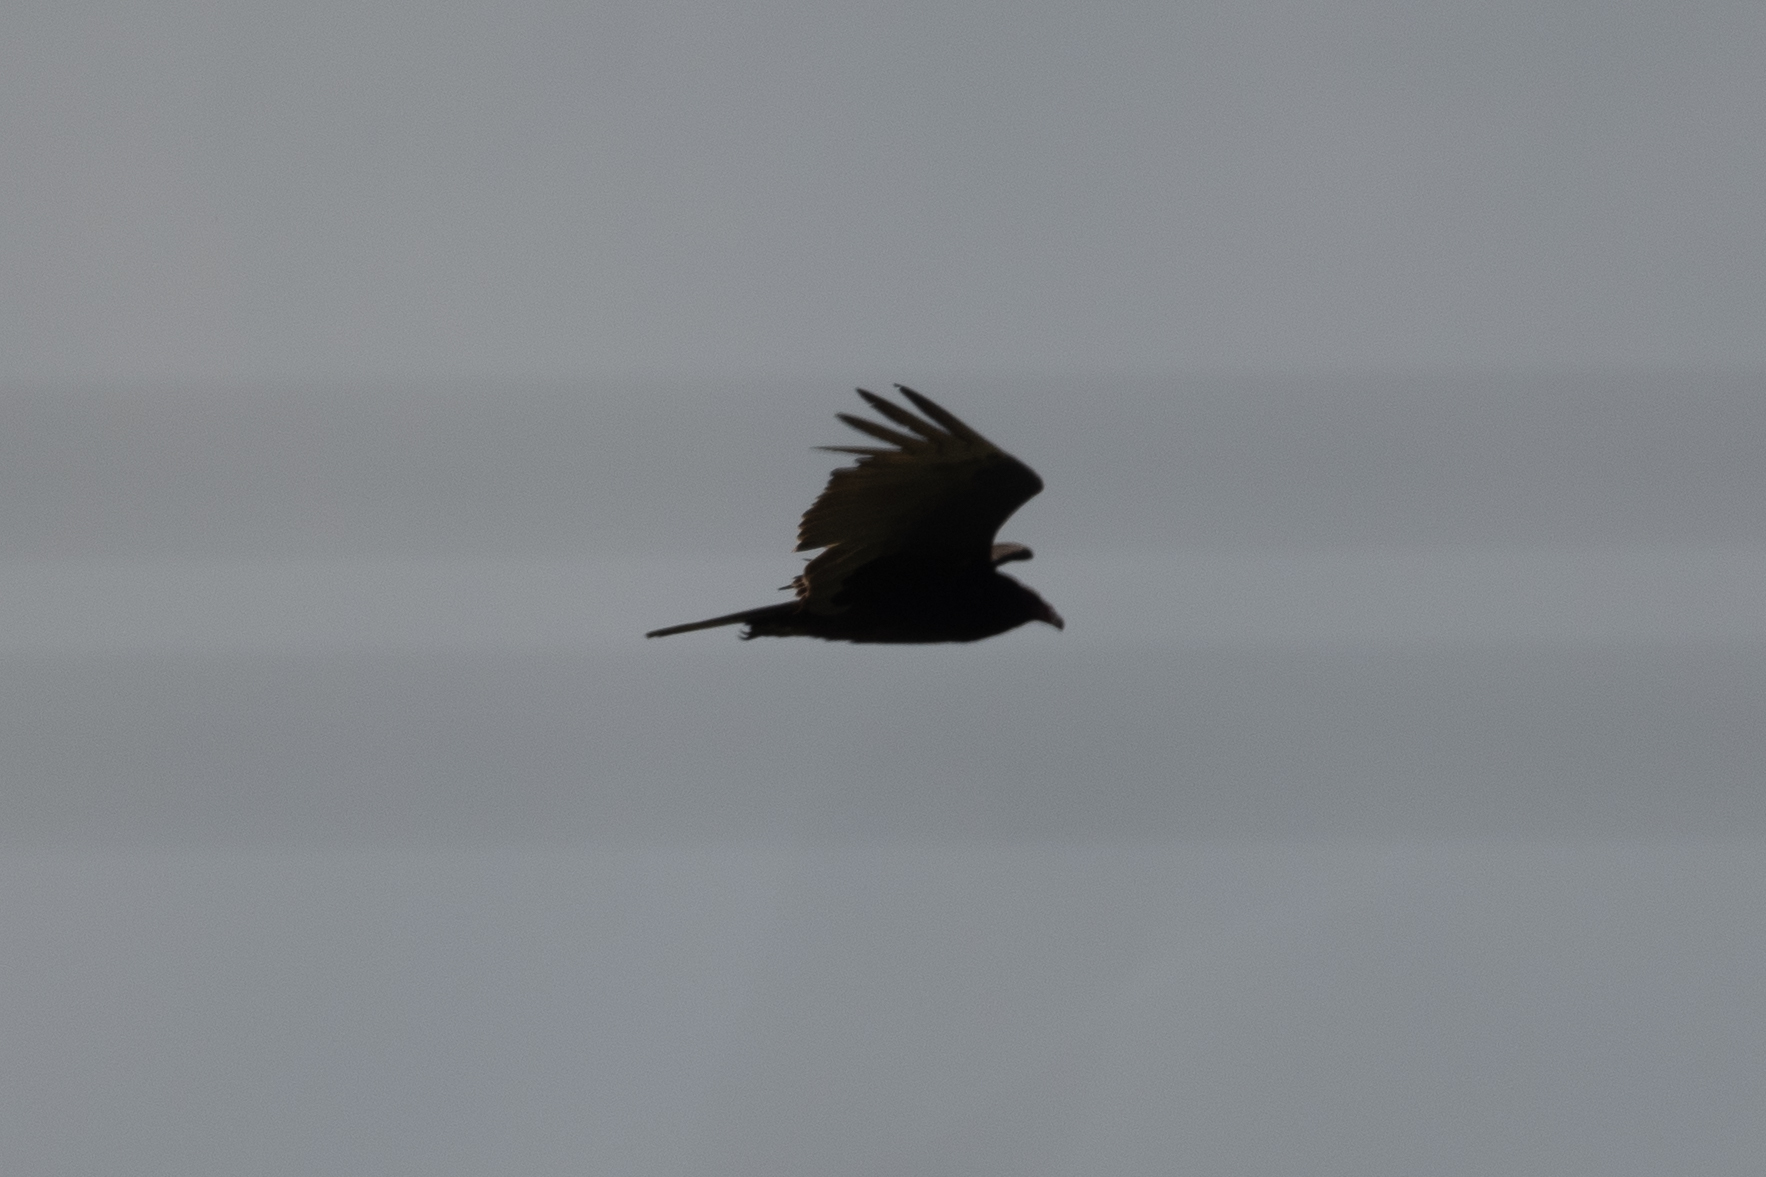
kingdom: Animalia
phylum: Chordata
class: Aves
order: Accipitriformes
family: Cathartidae
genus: Cathartes
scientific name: Cathartes aura
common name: Turkey vulture
